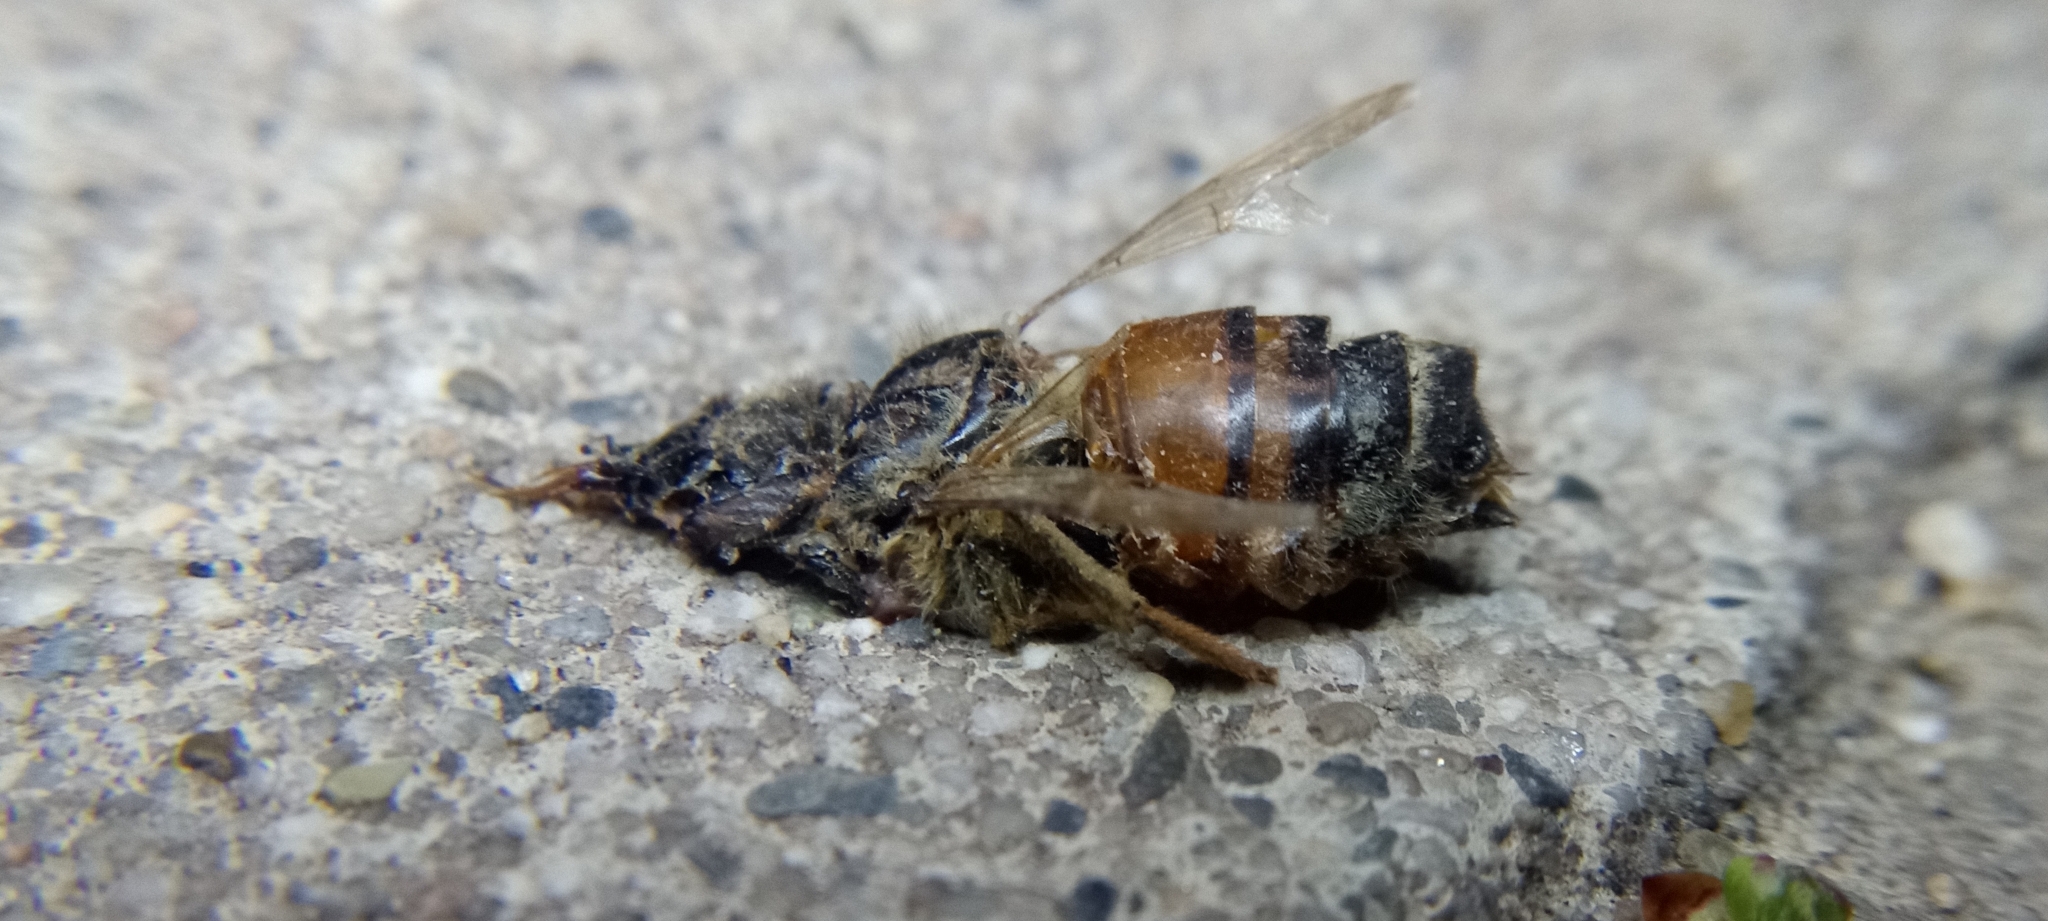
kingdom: Animalia
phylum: Arthropoda
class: Insecta
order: Hymenoptera
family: Apidae
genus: Apis
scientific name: Apis mellifera
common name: Honey bee
